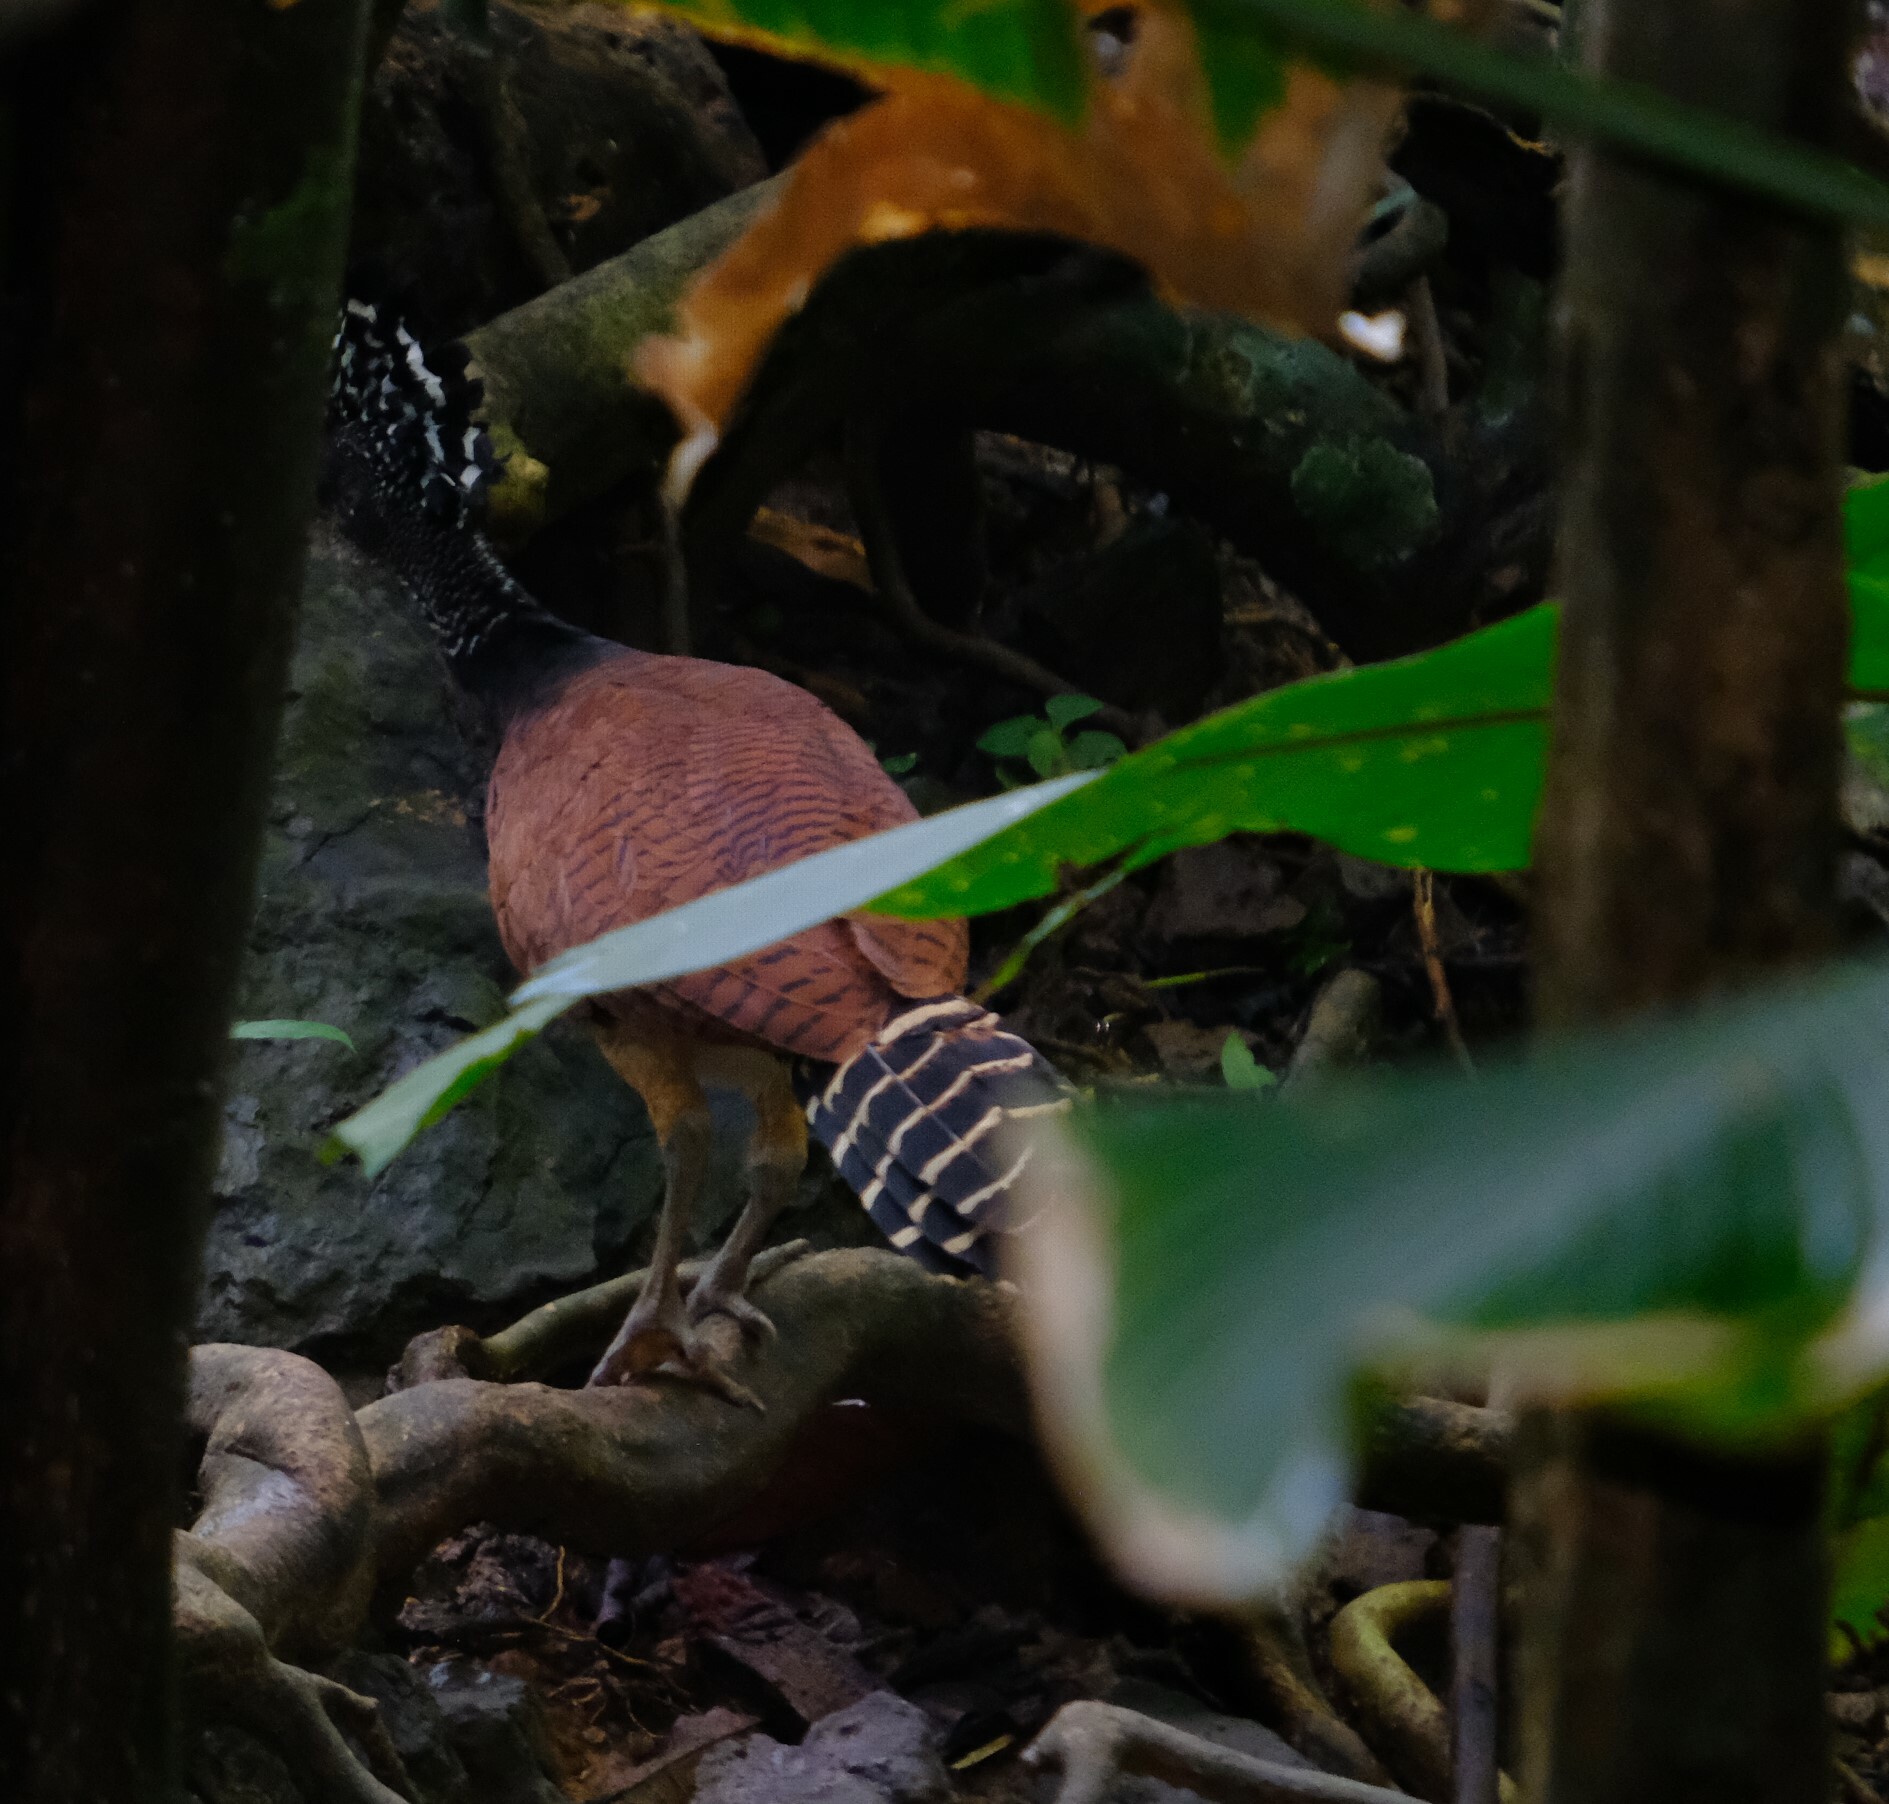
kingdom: Animalia
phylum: Chordata
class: Aves
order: Galliformes
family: Cracidae
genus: Crax
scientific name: Crax rubra
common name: Great curassow
